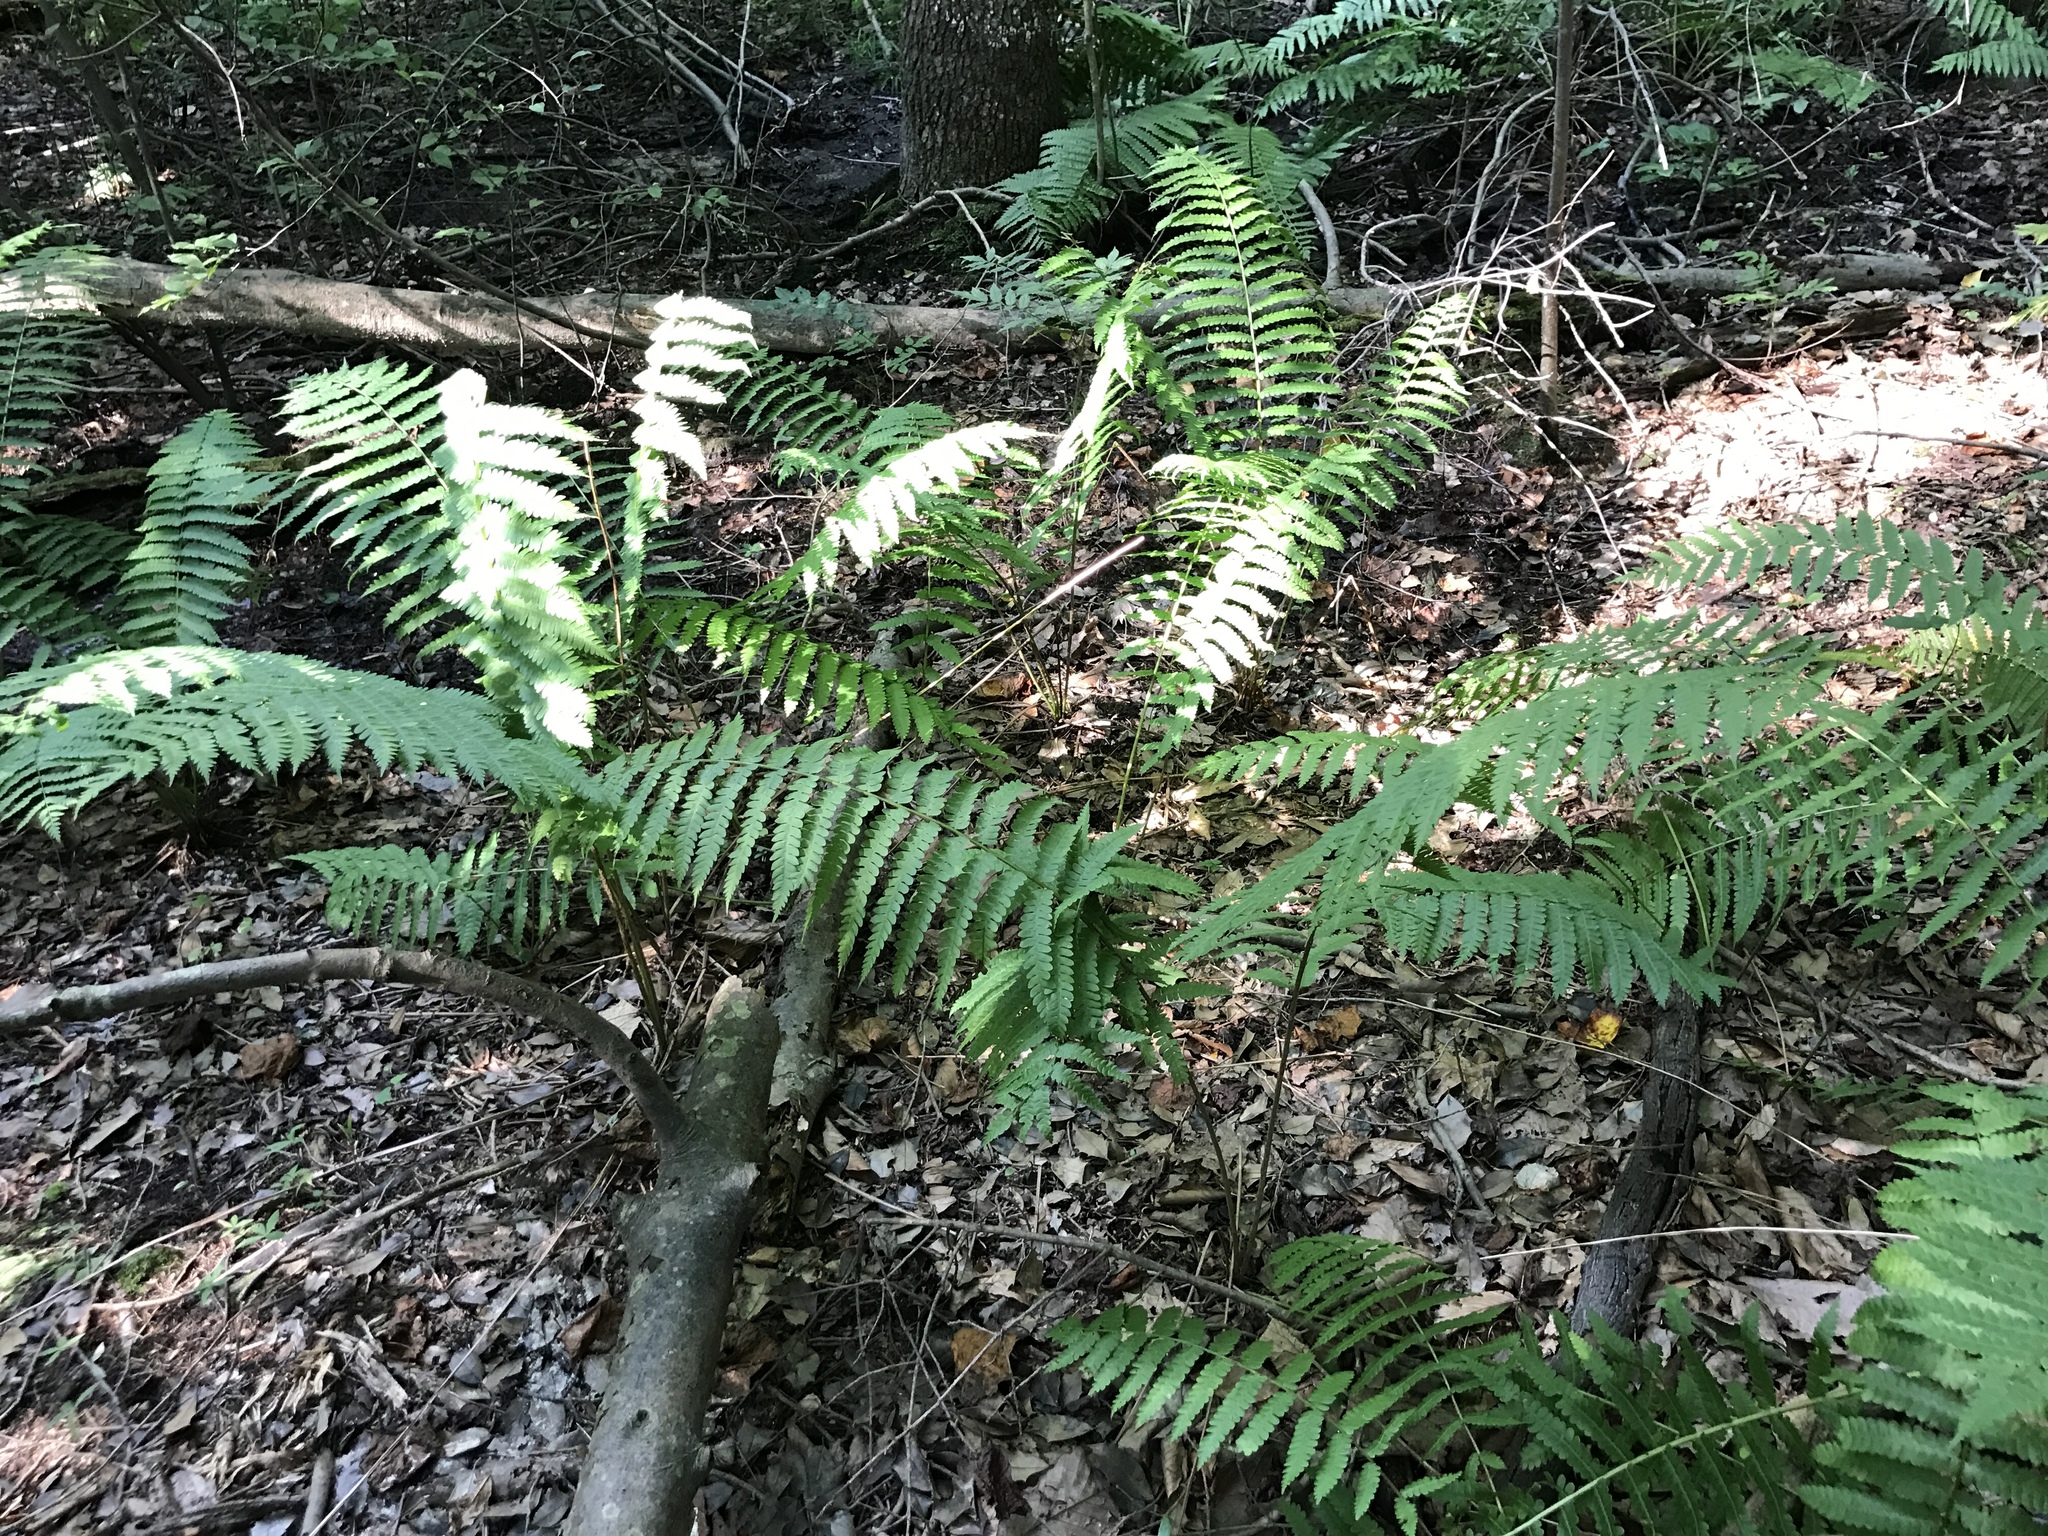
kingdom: Plantae
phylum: Tracheophyta
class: Polypodiopsida
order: Osmundales
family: Osmundaceae
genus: Osmundastrum
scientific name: Osmundastrum cinnamomeum
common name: Cinnamon fern
